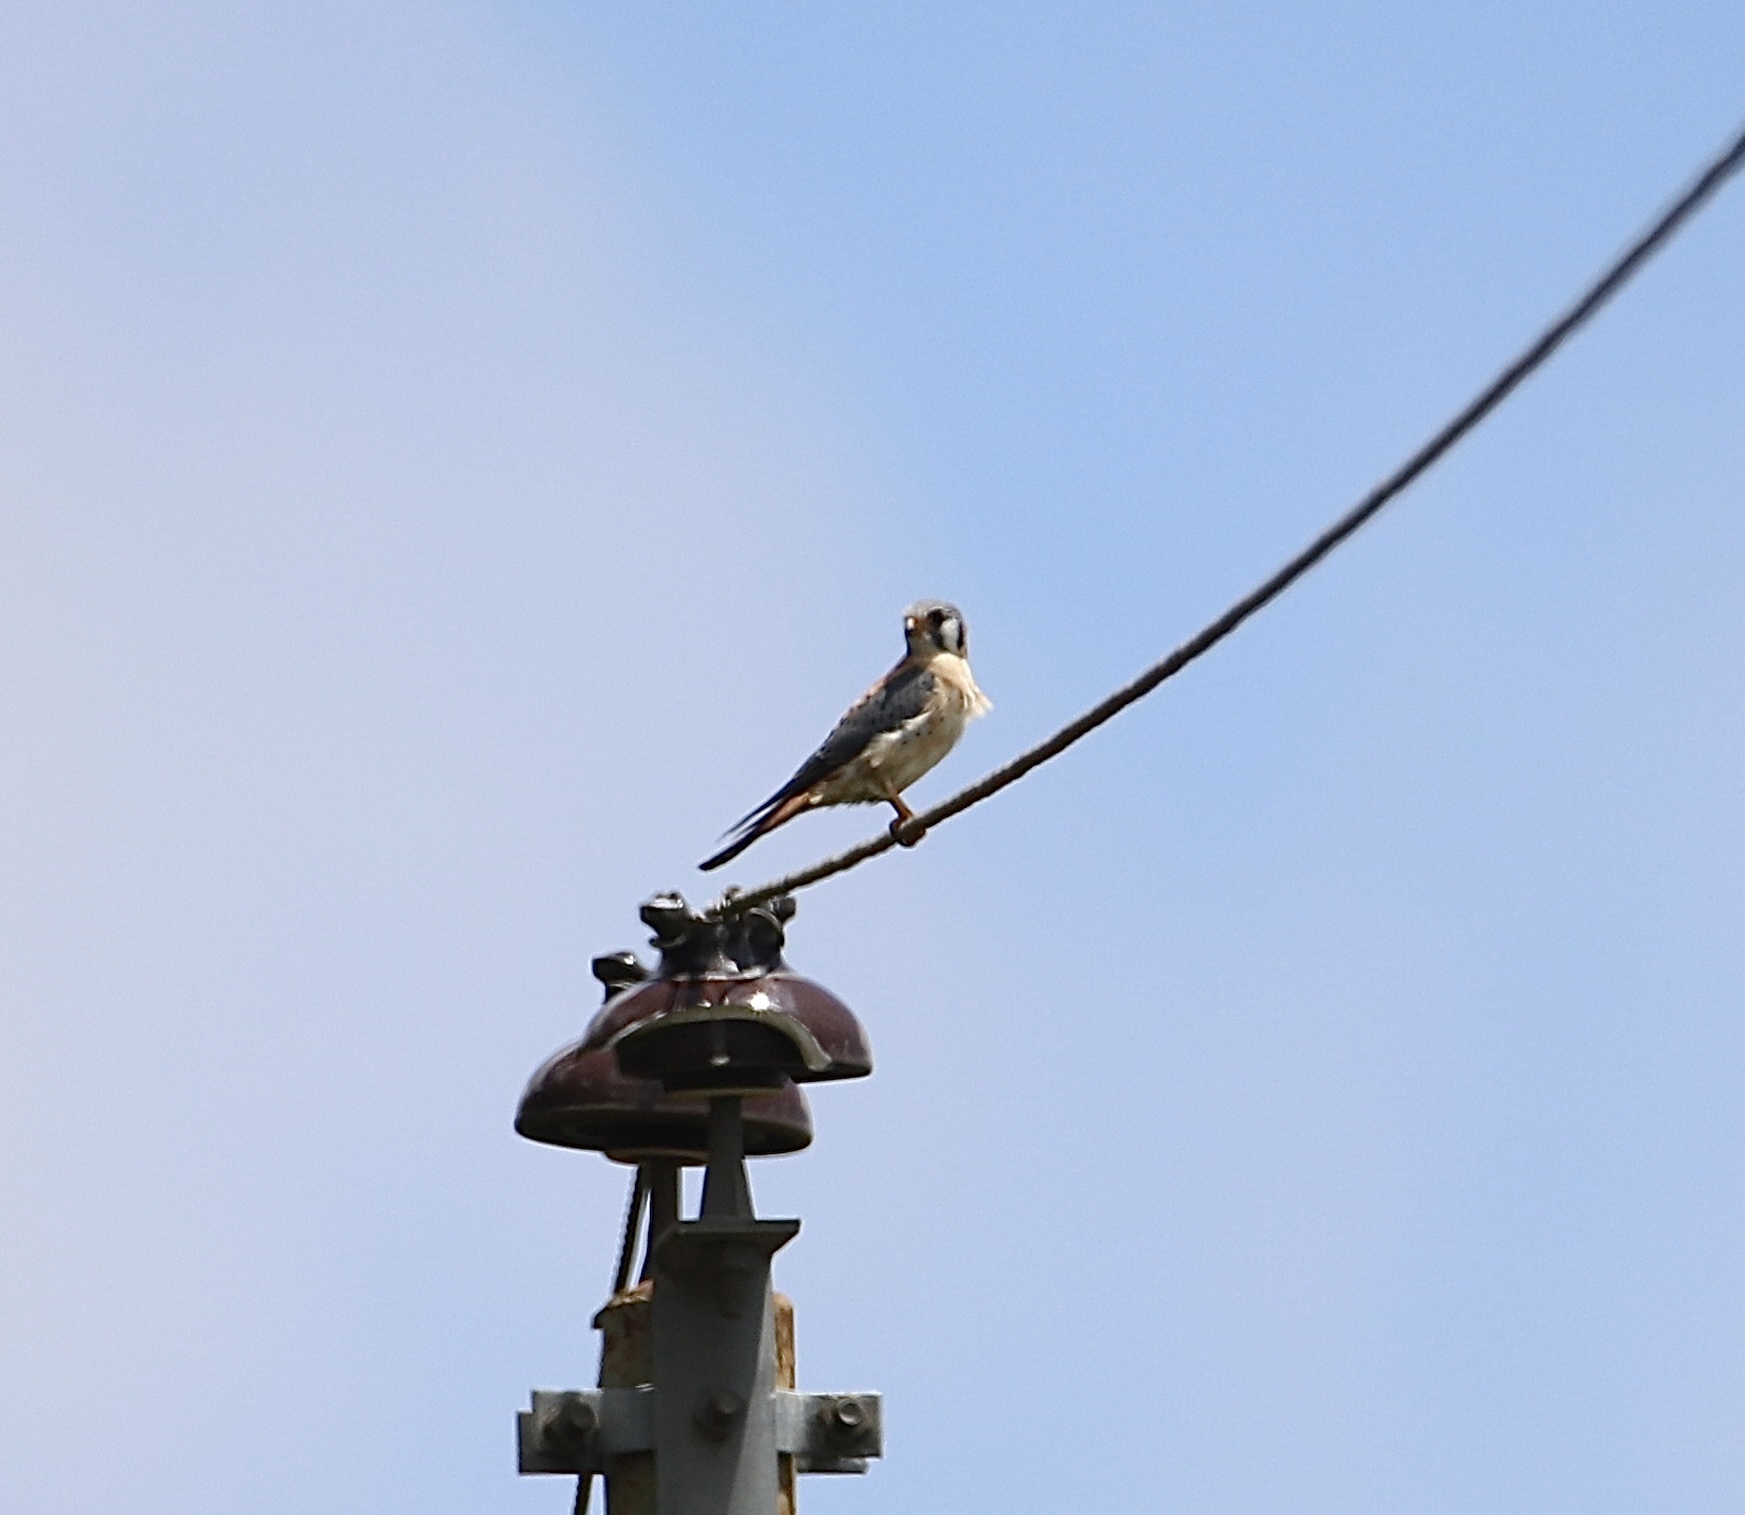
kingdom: Animalia
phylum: Chordata
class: Aves
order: Falconiformes
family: Falconidae
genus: Falco
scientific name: Falco sparverius
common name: American kestrel
